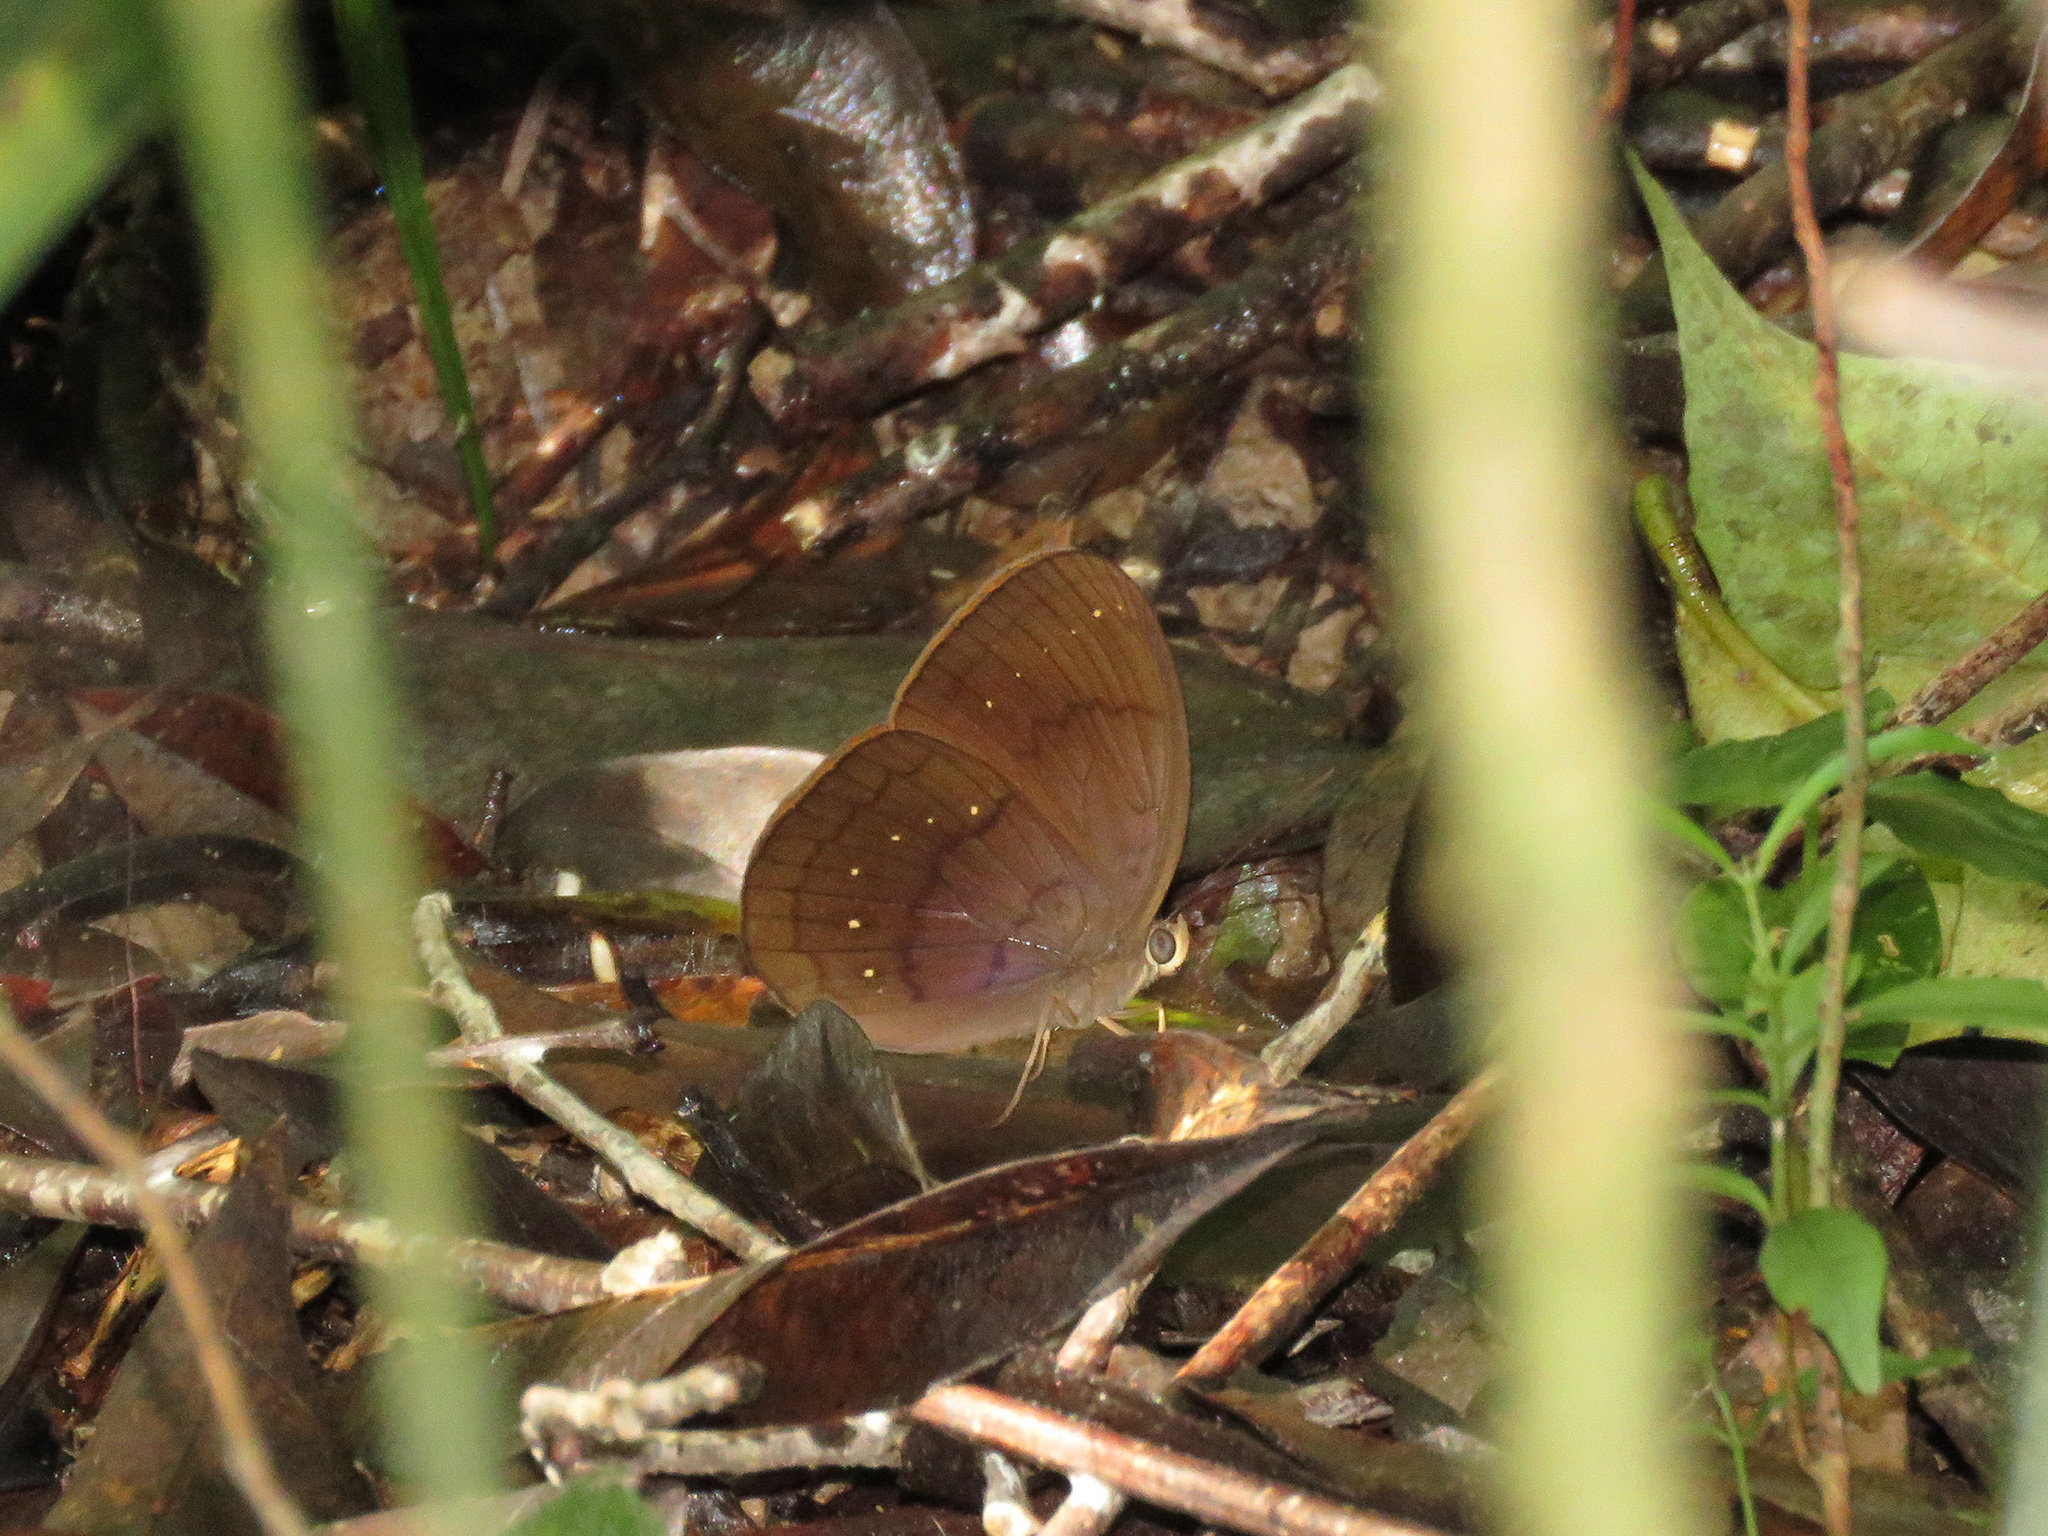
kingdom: Animalia
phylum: Arthropoda
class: Insecta
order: Lepidoptera
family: Nymphalidae
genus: Faunis
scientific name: Faunis canens
